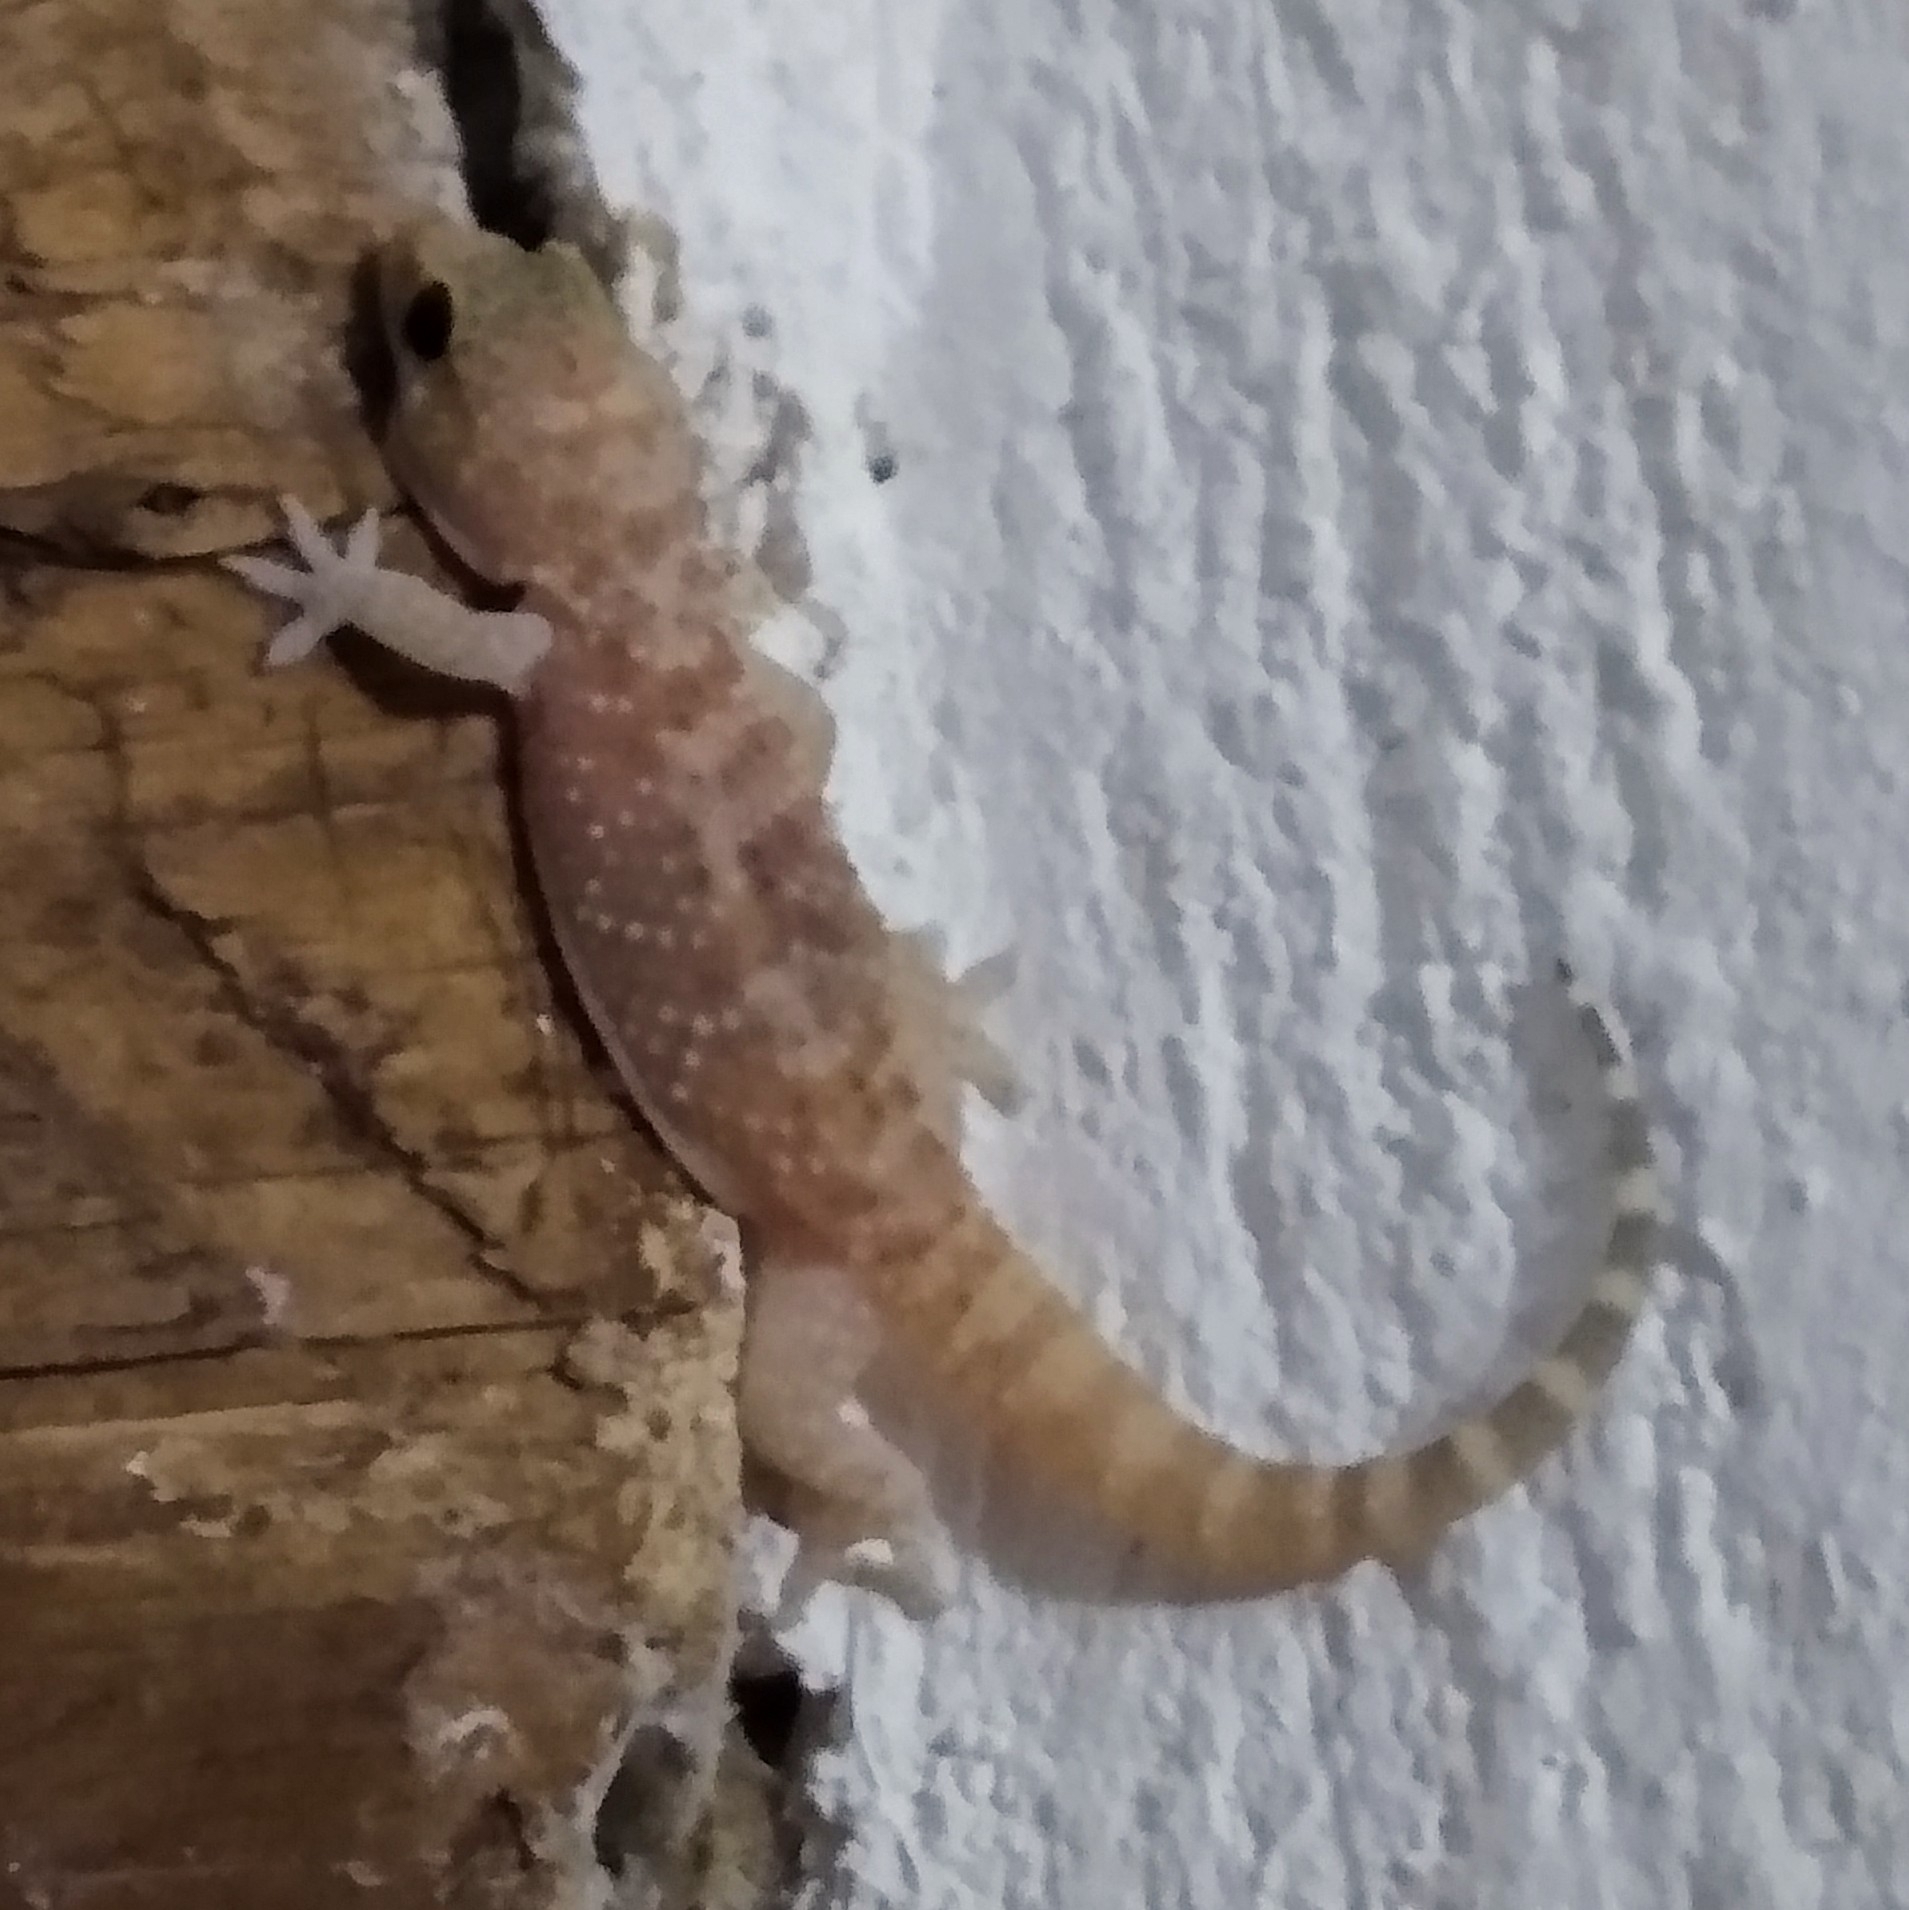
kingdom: Animalia
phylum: Chordata
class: Squamata
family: Gekkonidae
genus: Hemidactylus
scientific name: Hemidactylus turcicus
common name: Turkish gecko
